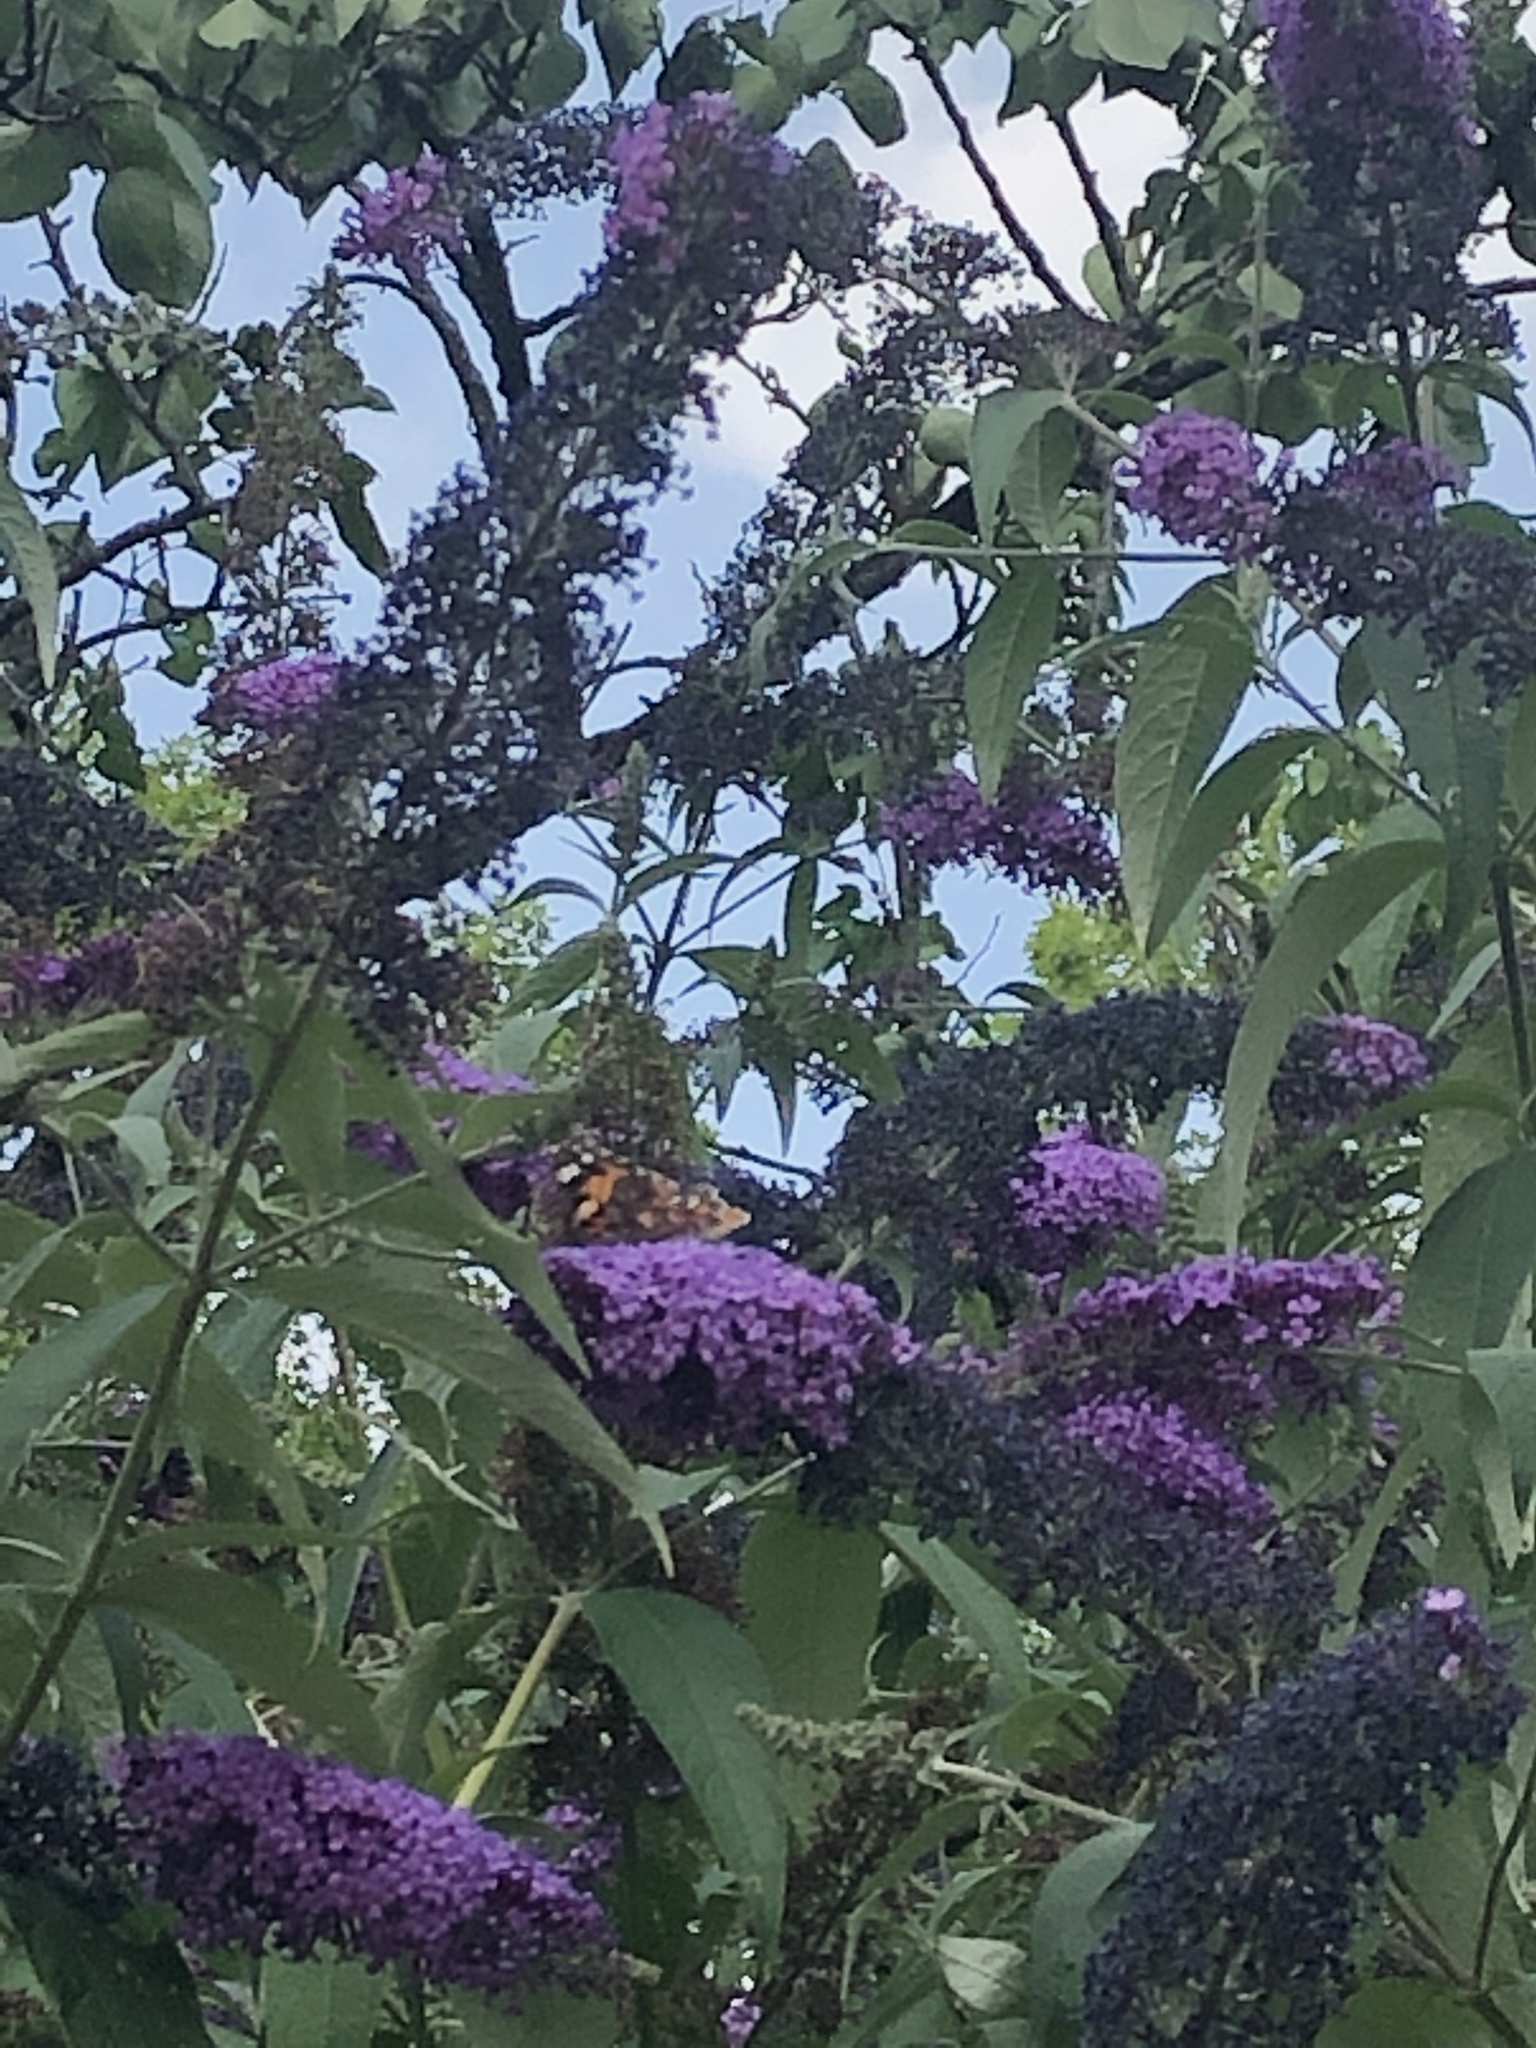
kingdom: Animalia
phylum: Arthropoda
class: Insecta
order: Lepidoptera
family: Nymphalidae
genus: Vanessa
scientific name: Vanessa cardui
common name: Painted lady
